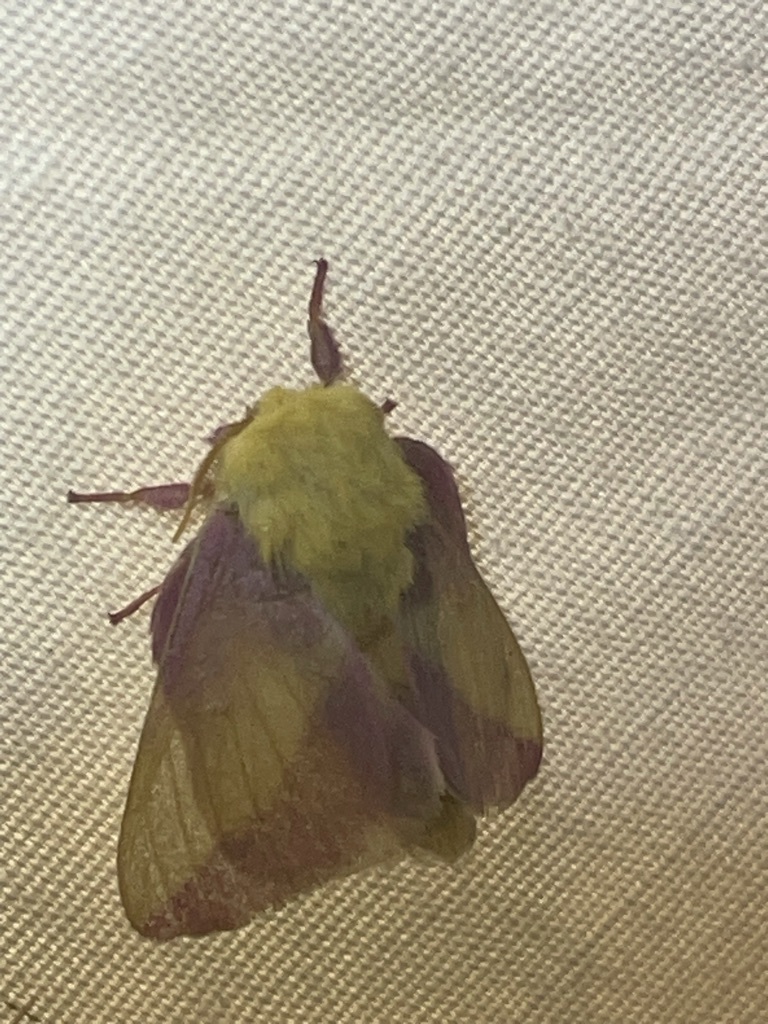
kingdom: Animalia
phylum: Arthropoda
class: Insecta
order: Lepidoptera
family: Saturniidae
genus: Dryocampa
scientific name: Dryocampa rubicunda
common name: Rosy maple moth
